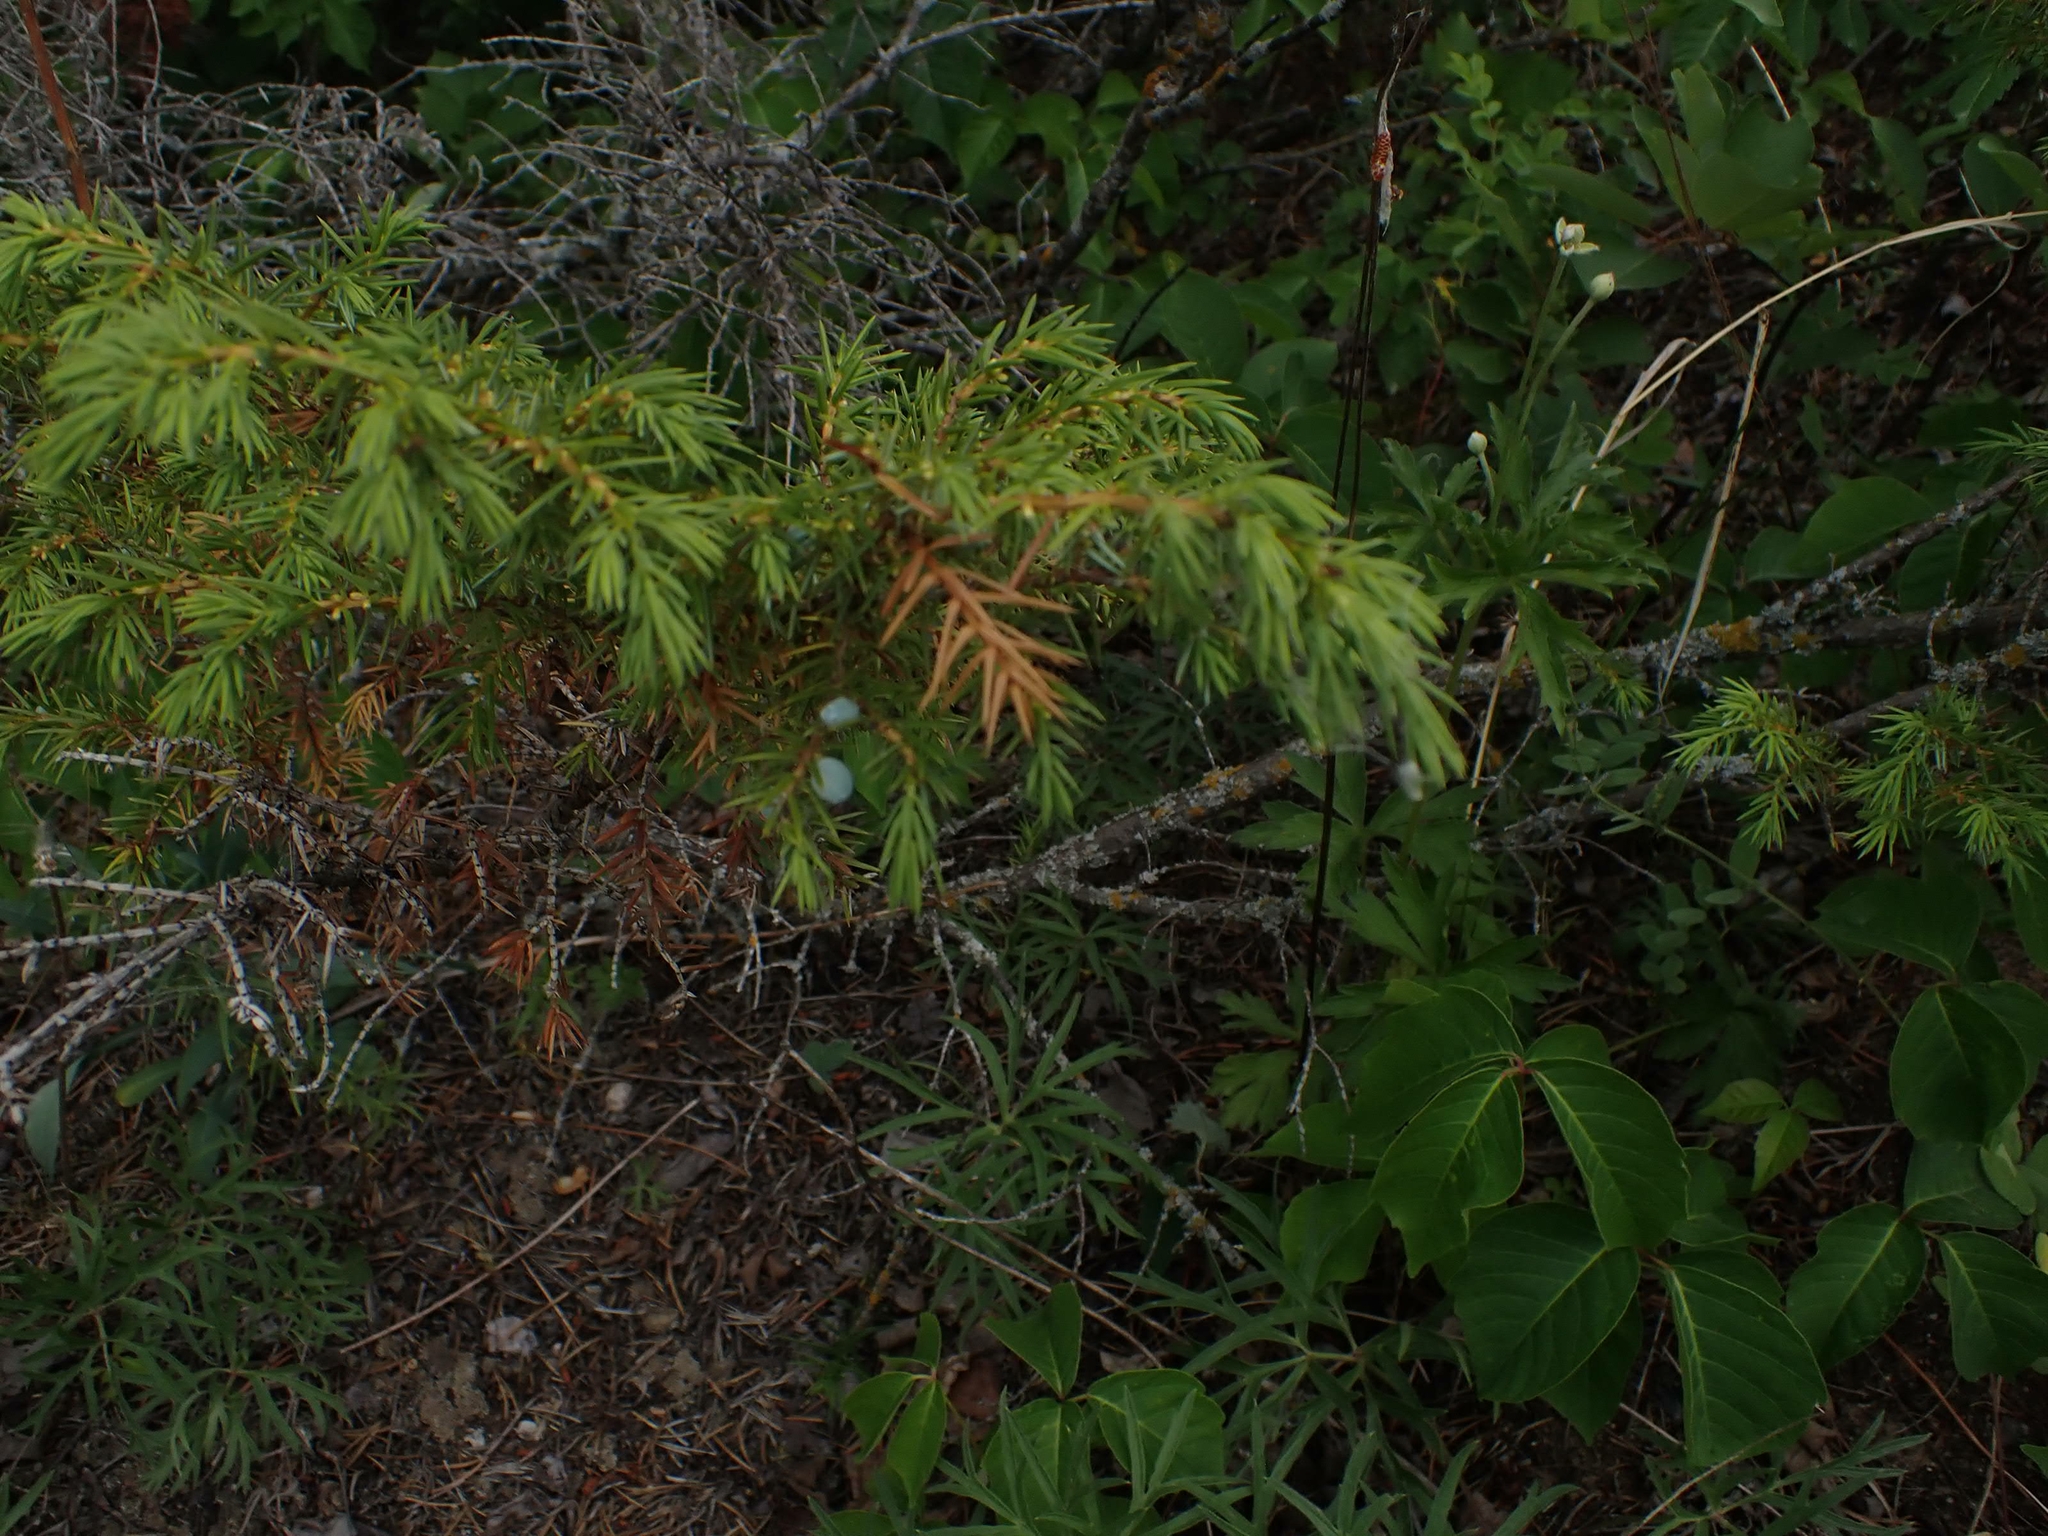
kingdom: Plantae
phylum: Tracheophyta
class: Pinopsida
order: Pinales
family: Cupressaceae
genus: Juniperus
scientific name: Juniperus communis
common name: Common juniper
